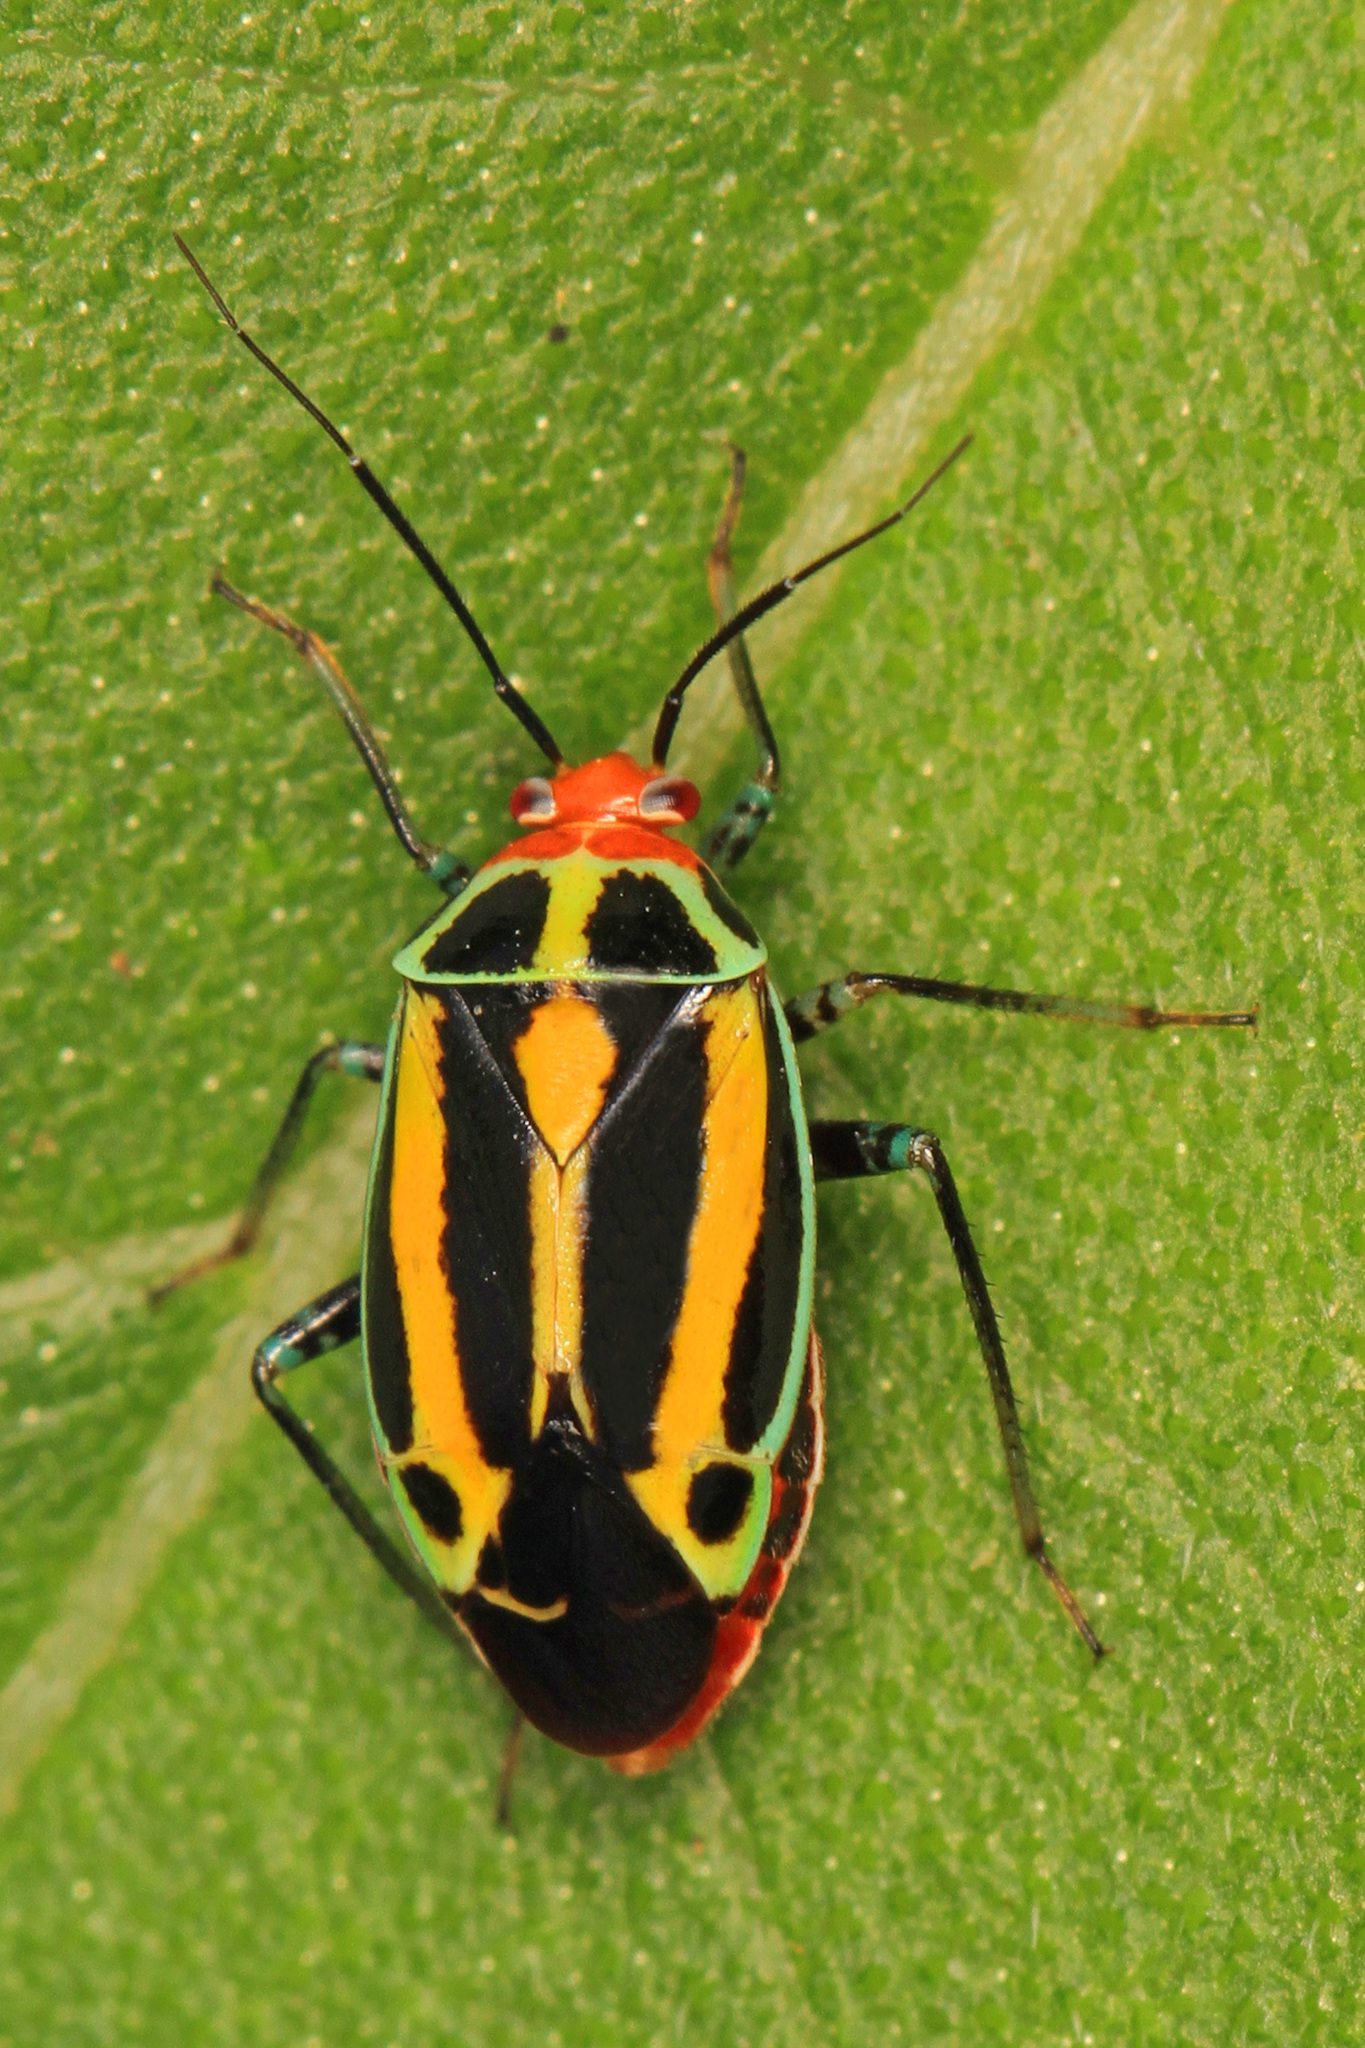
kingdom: Animalia
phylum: Arthropoda
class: Insecta
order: Hemiptera
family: Miridae
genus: Poecilocapsus
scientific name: Poecilocapsus lineatus
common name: Four-lined plant bug
